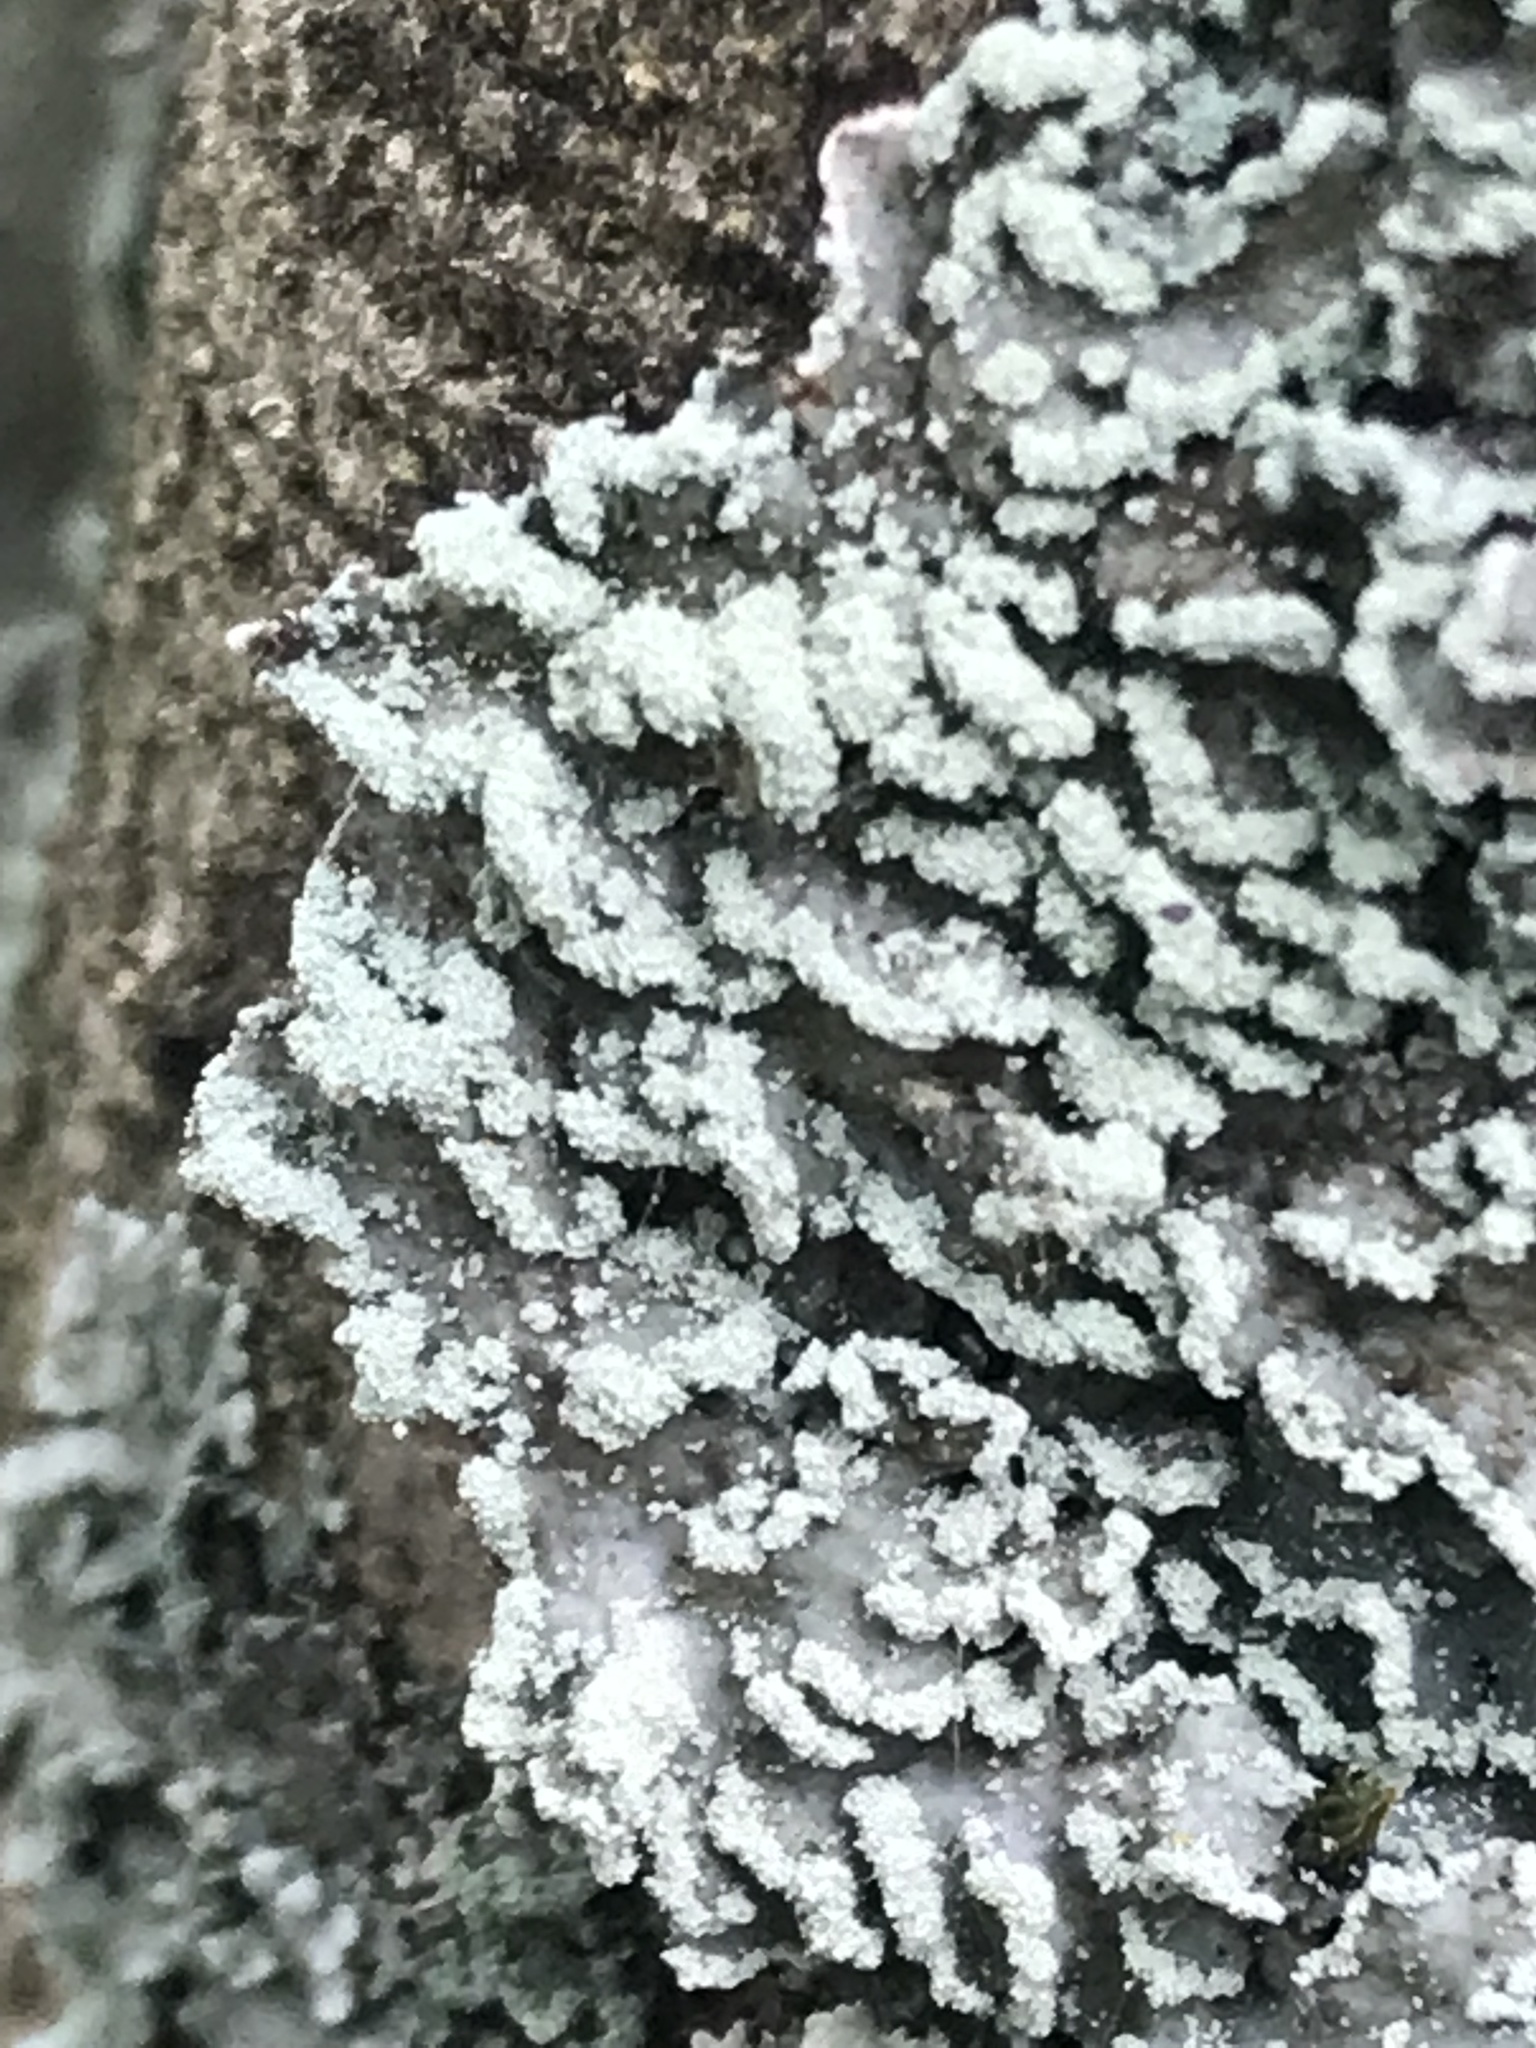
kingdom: Fungi
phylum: Ascomycota
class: Lecanoromycetes
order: Caliciales
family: Physciaceae
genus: Polyblastidium
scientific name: Polyblastidium albicans
